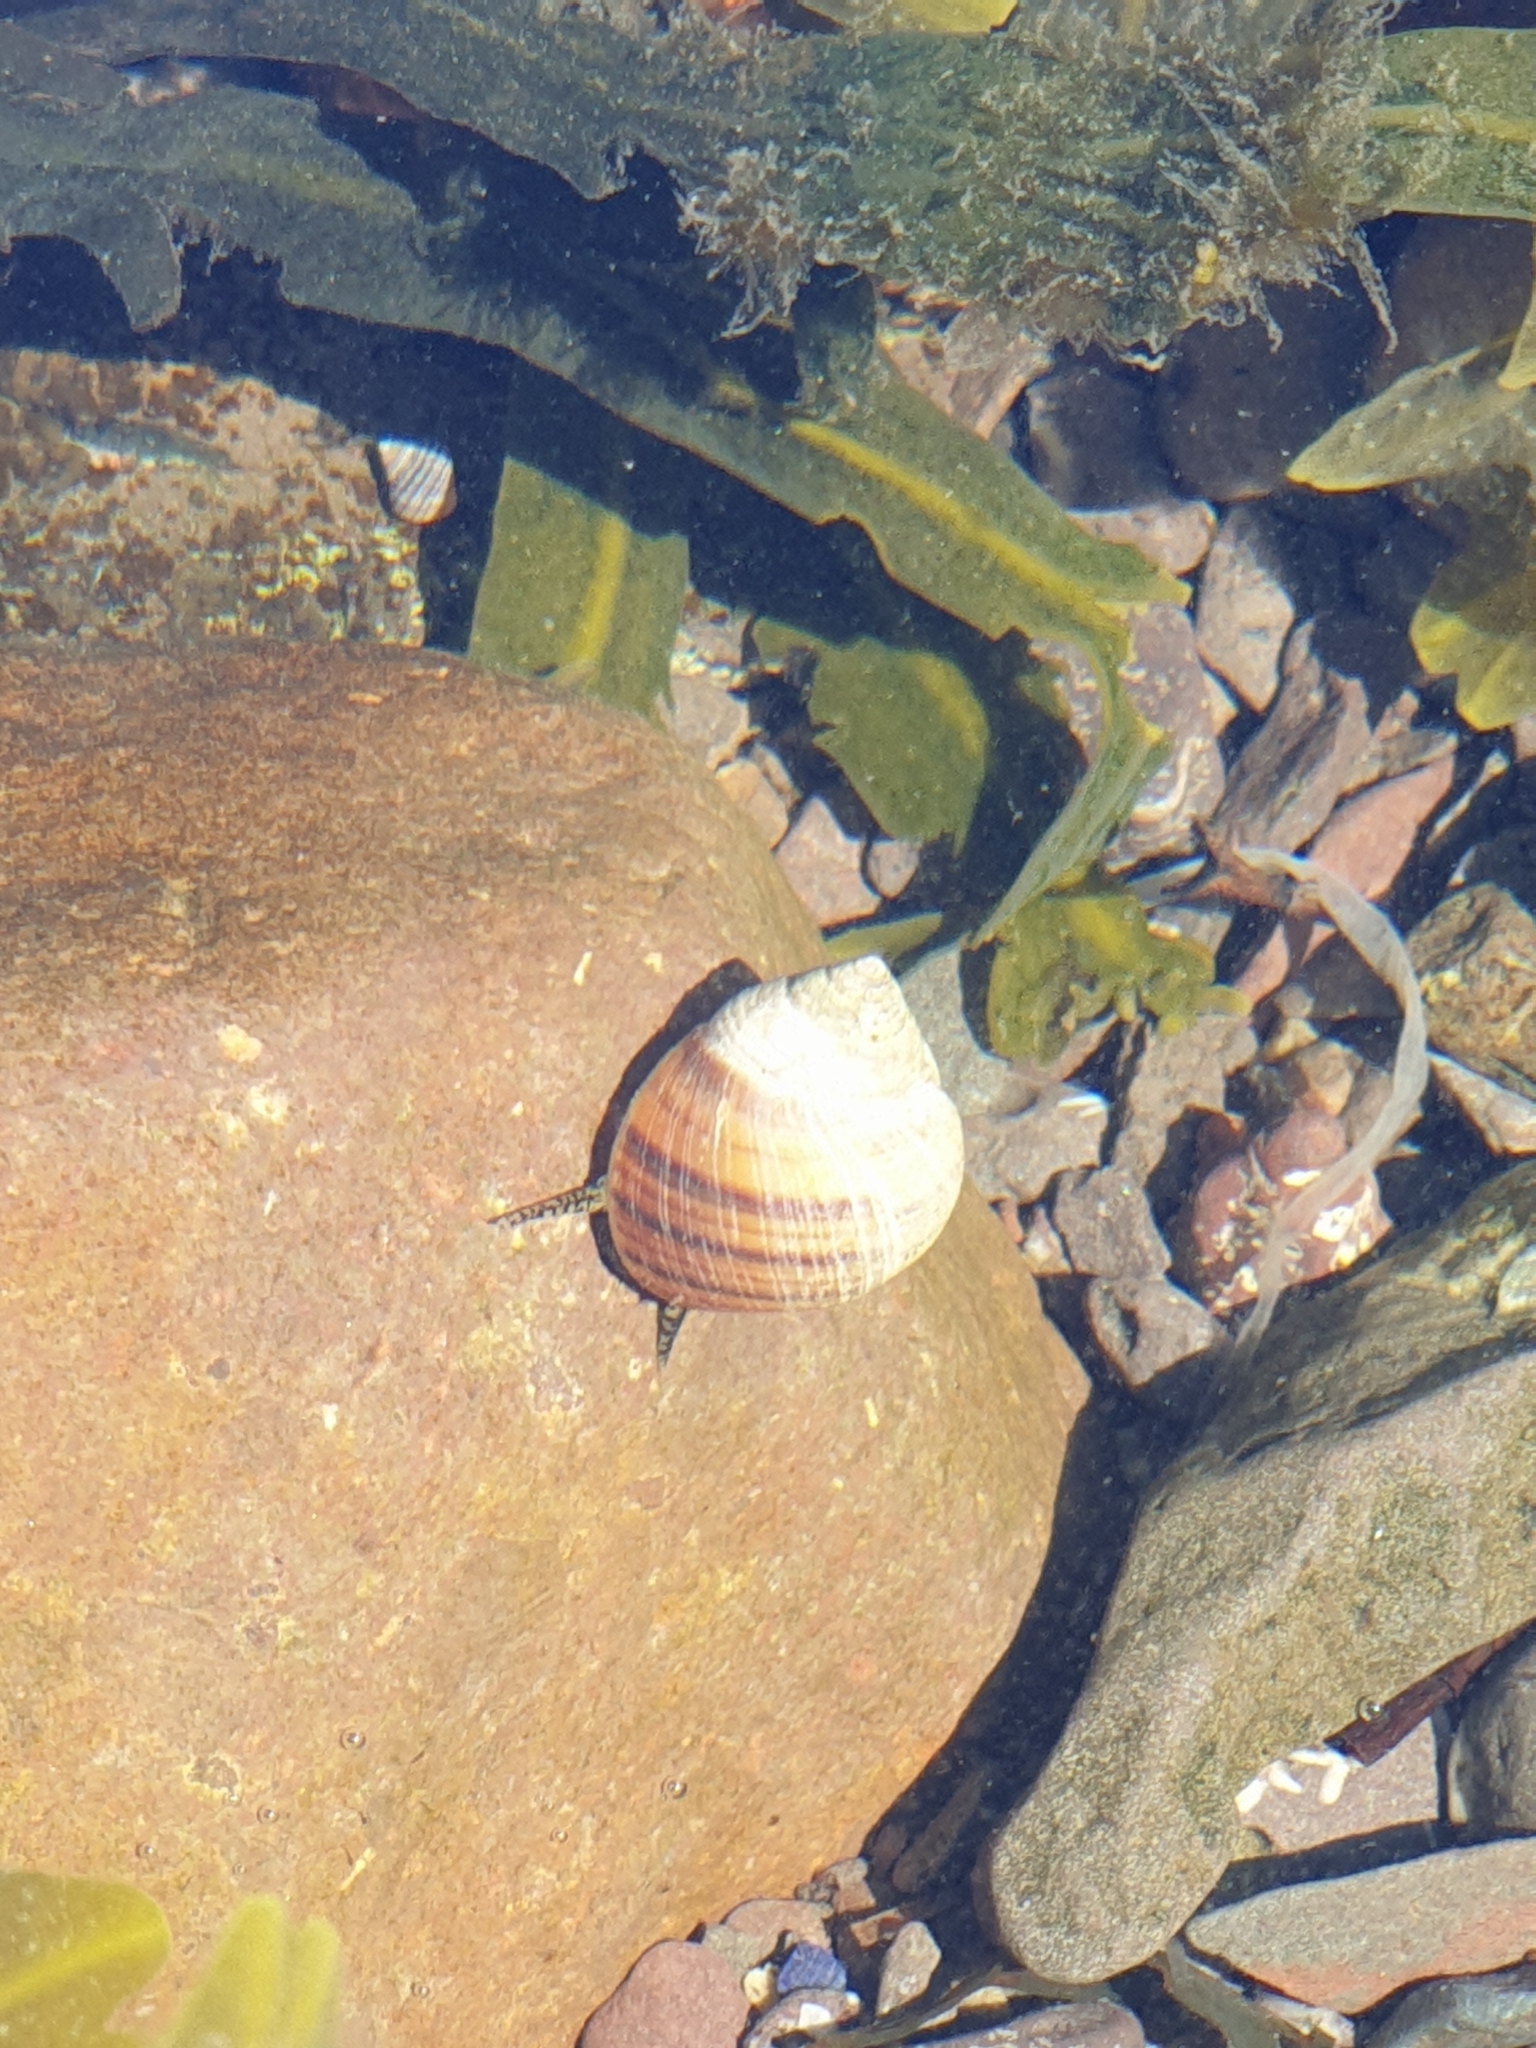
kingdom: Animalia
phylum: Mollusca
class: Gastropoda
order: Littorinimorpha
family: Littorinidae
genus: Littorina
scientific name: Littorina littorea
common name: Common periwinkle
